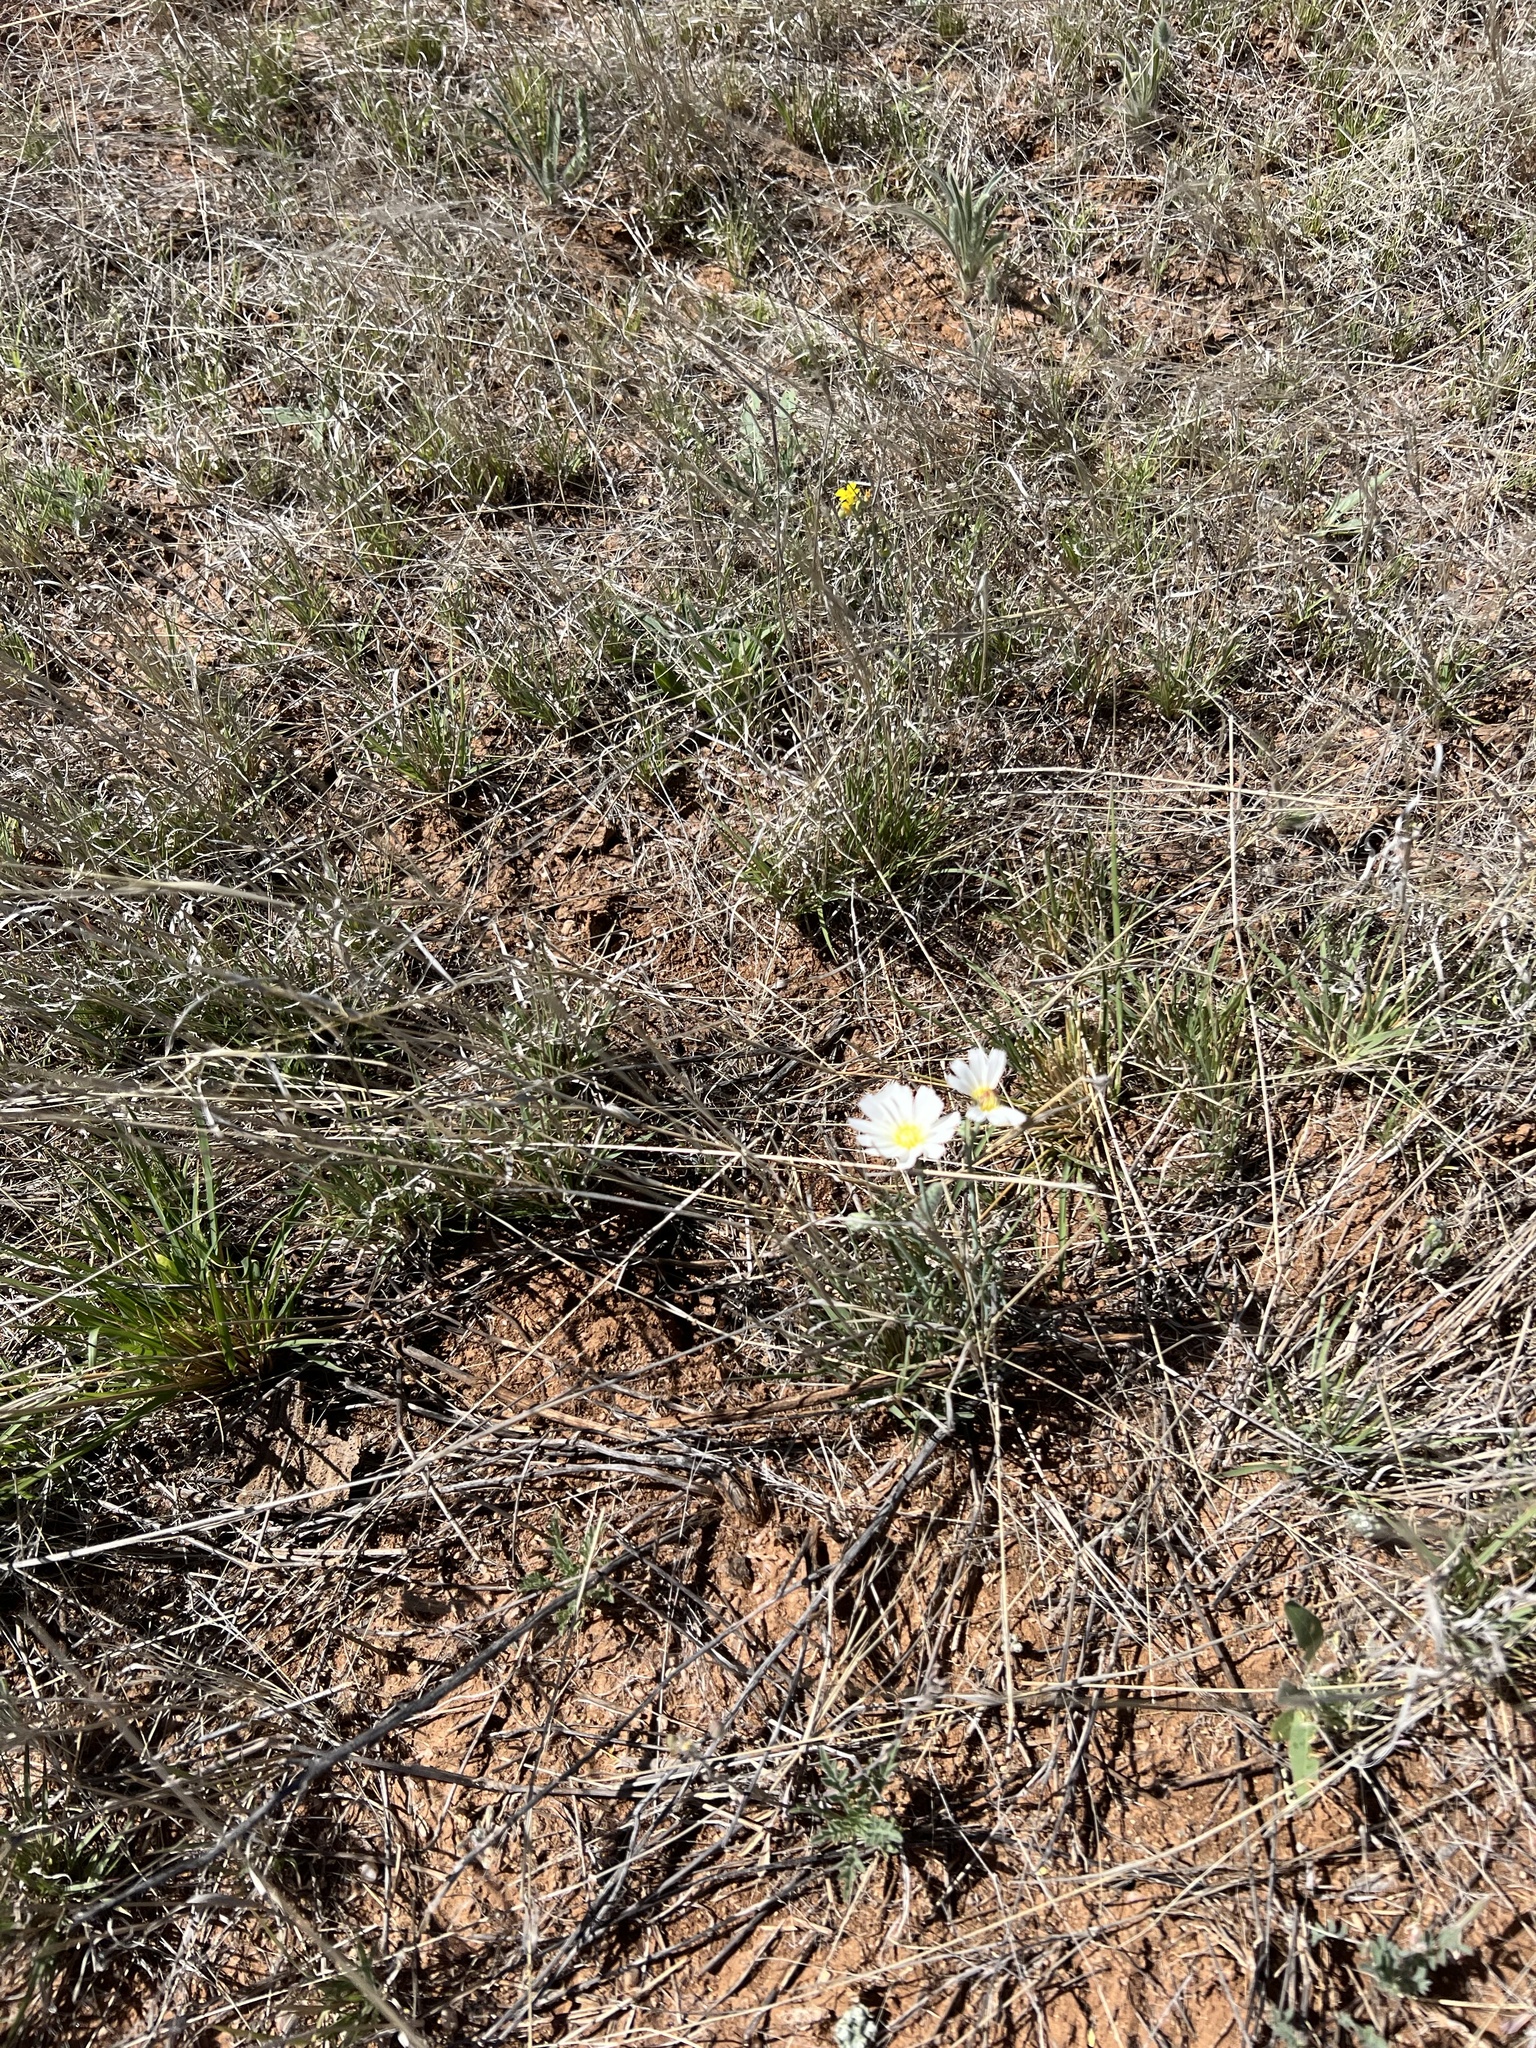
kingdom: Plantae
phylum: Tracheophyta
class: Magnoliopsida
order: Asterales
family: Asteraceae
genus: Calycoseris
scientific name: Calycoseris wrightii
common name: White tackstem
